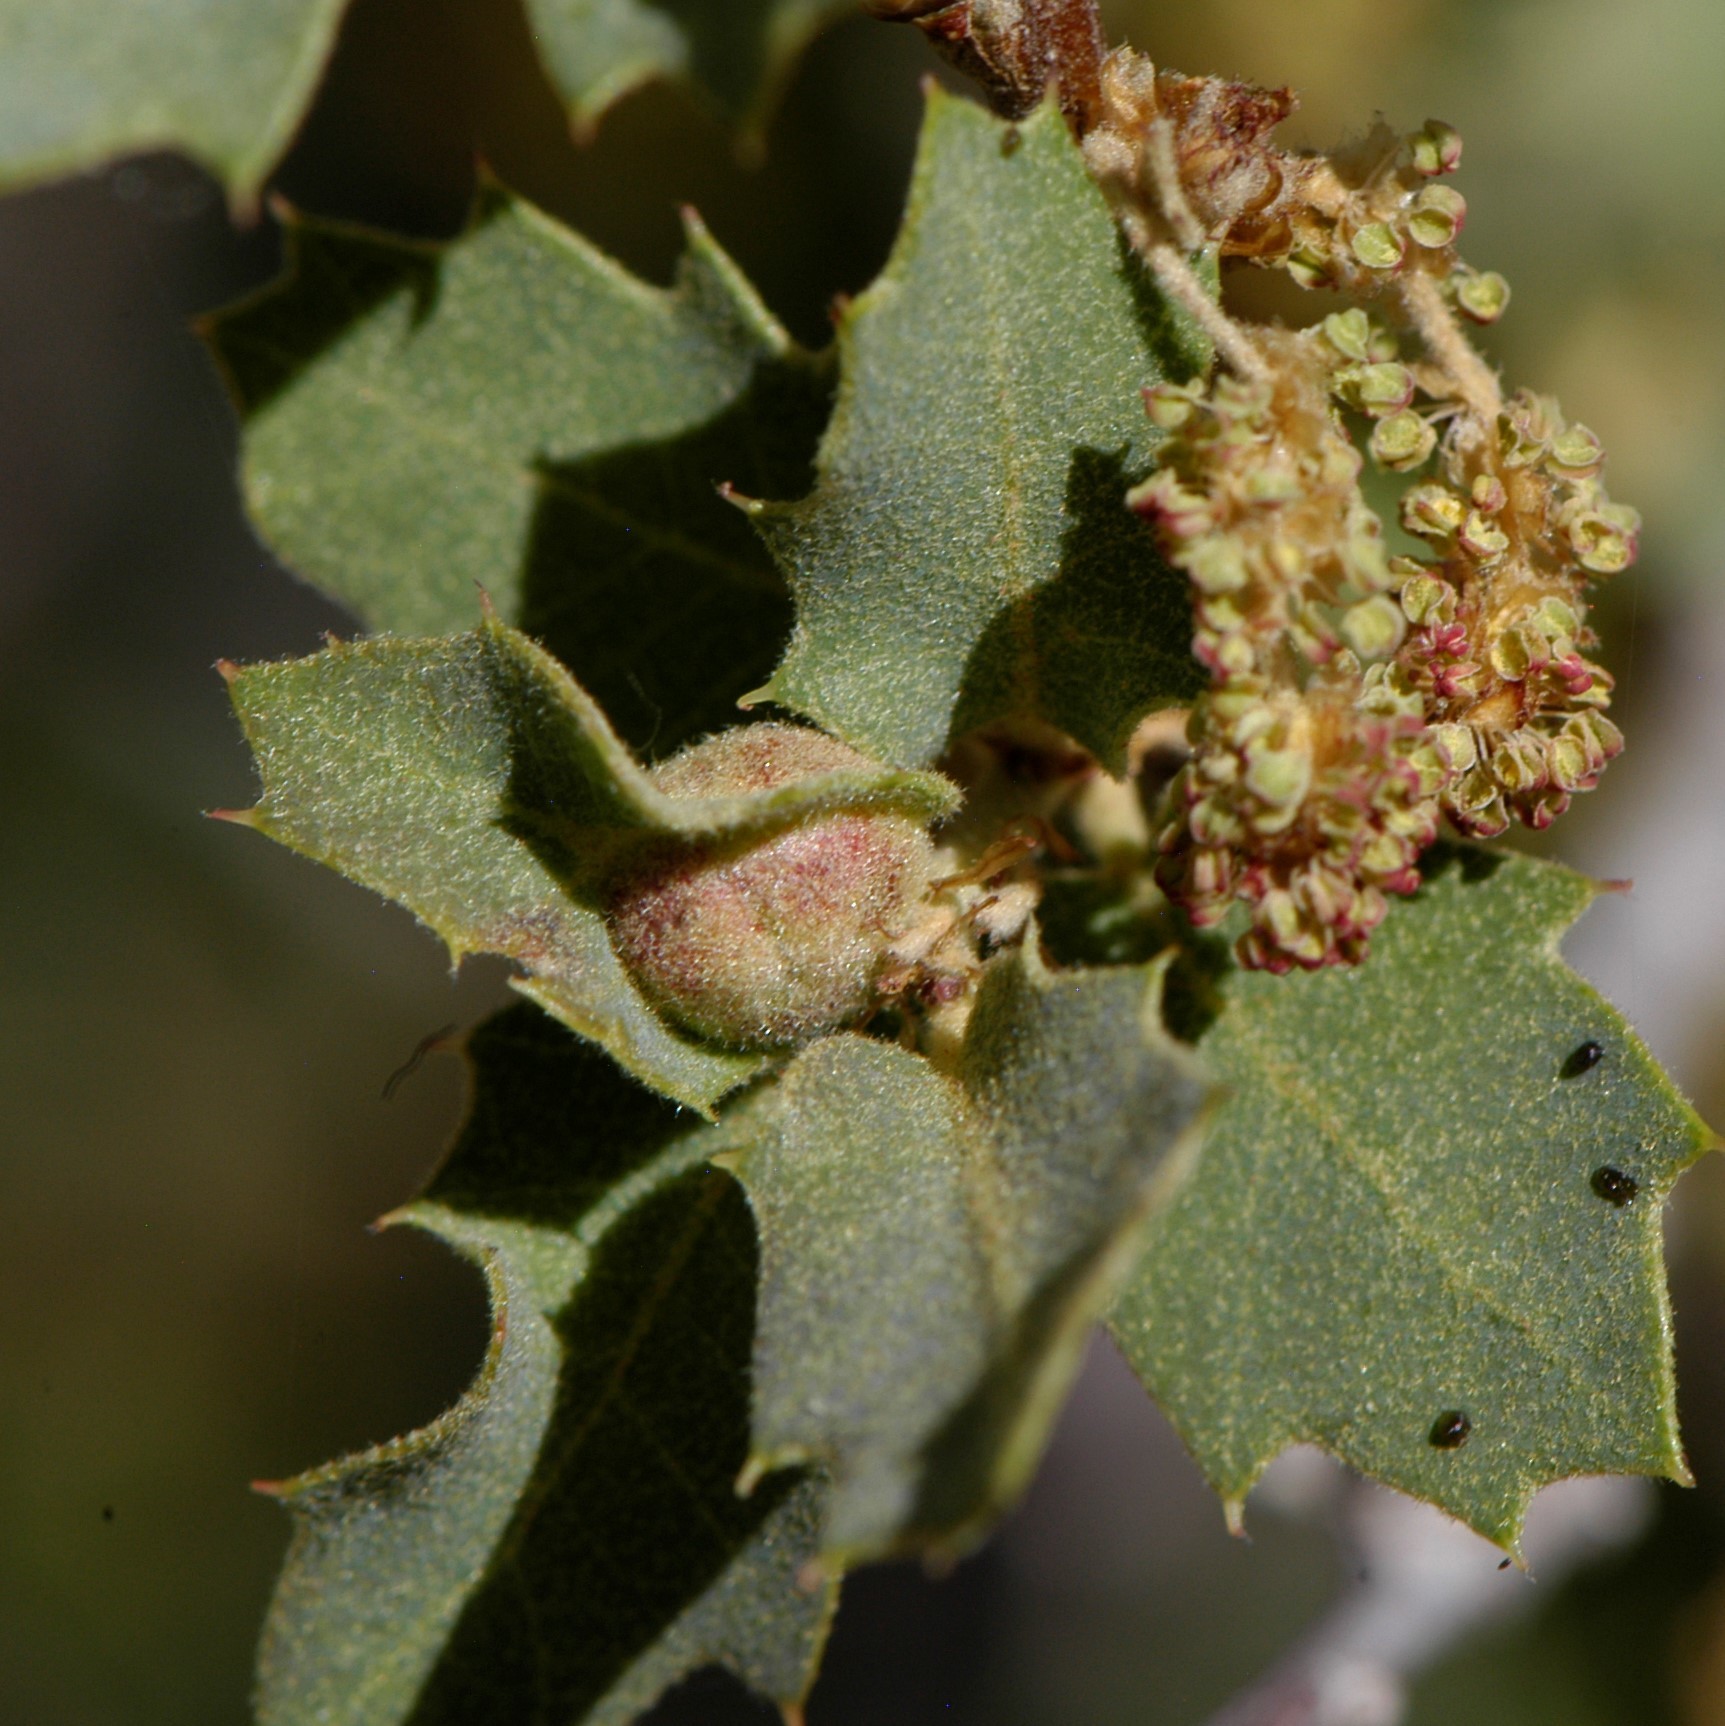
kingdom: Animalia
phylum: Arthropoda
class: Insecta
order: Hymenoptera
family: Cynipidae
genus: Andricus
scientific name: Andricus
